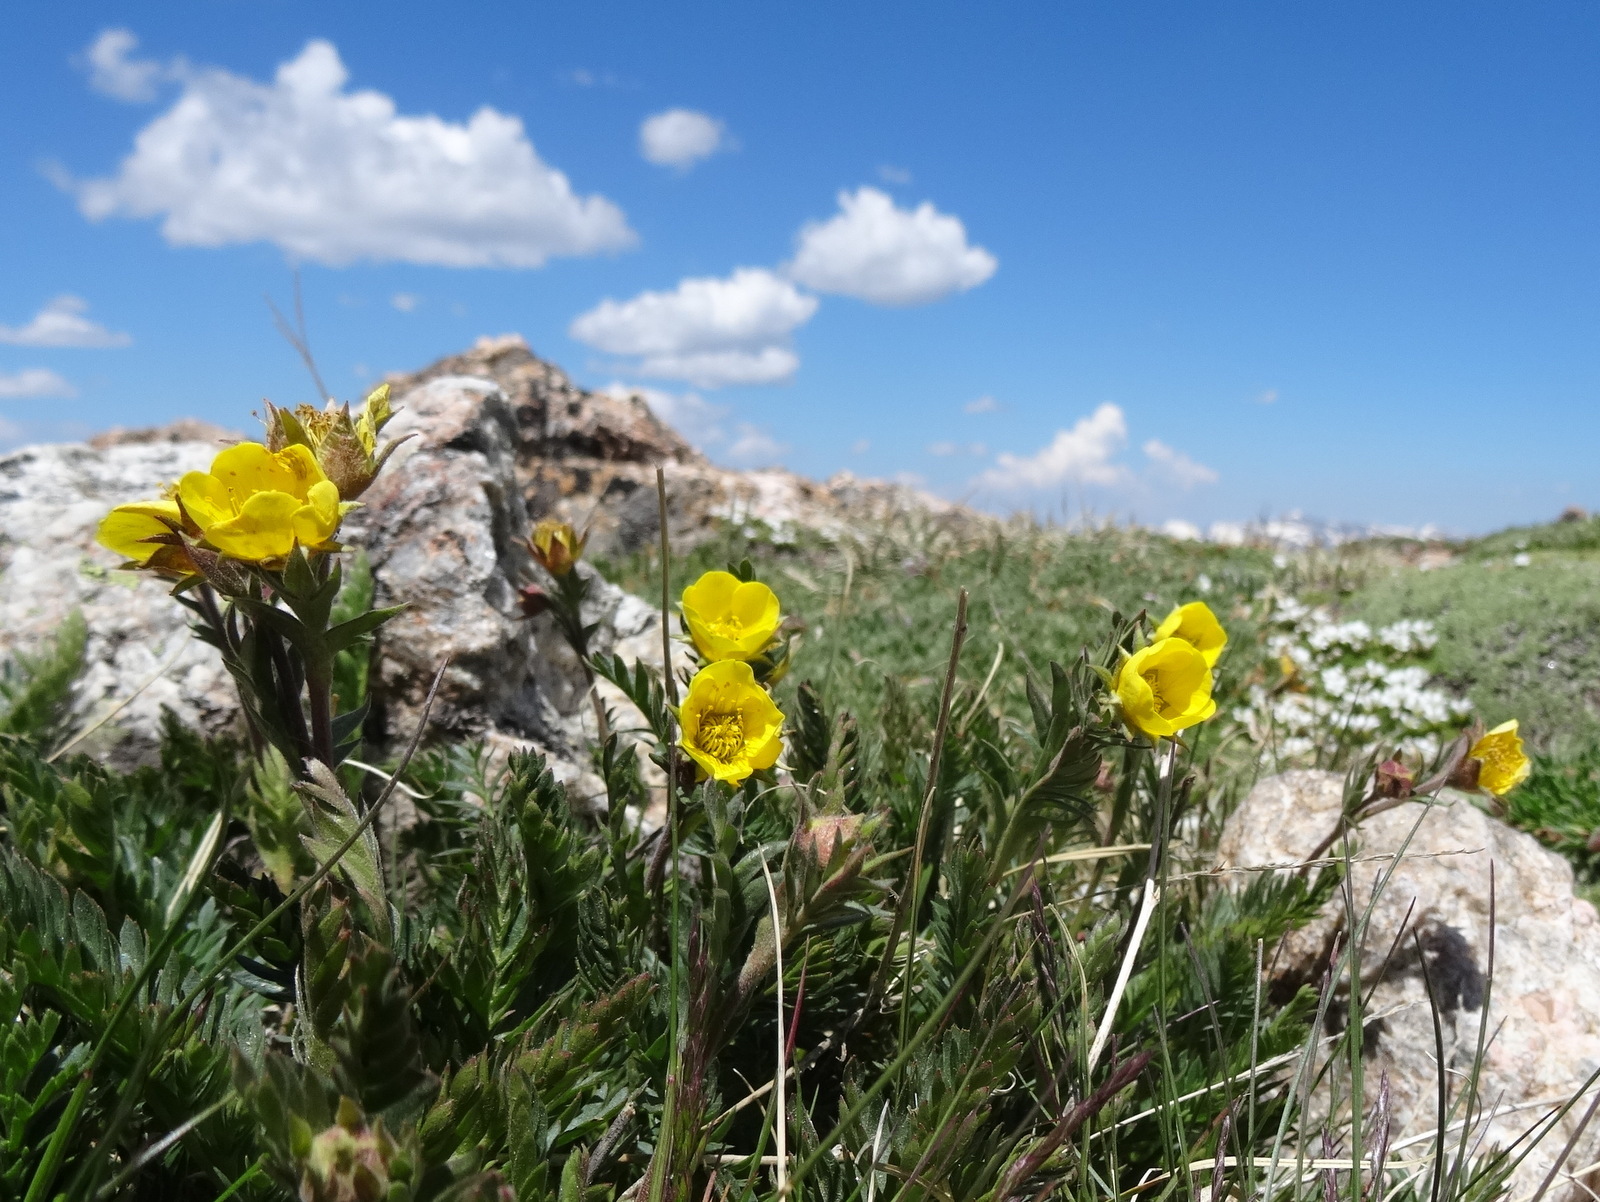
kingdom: Plantae
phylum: Tracheophyta
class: Magnoliopsida
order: Rosales
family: Rosaceae
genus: Geum
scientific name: Geum rossii
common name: Alpine avens
